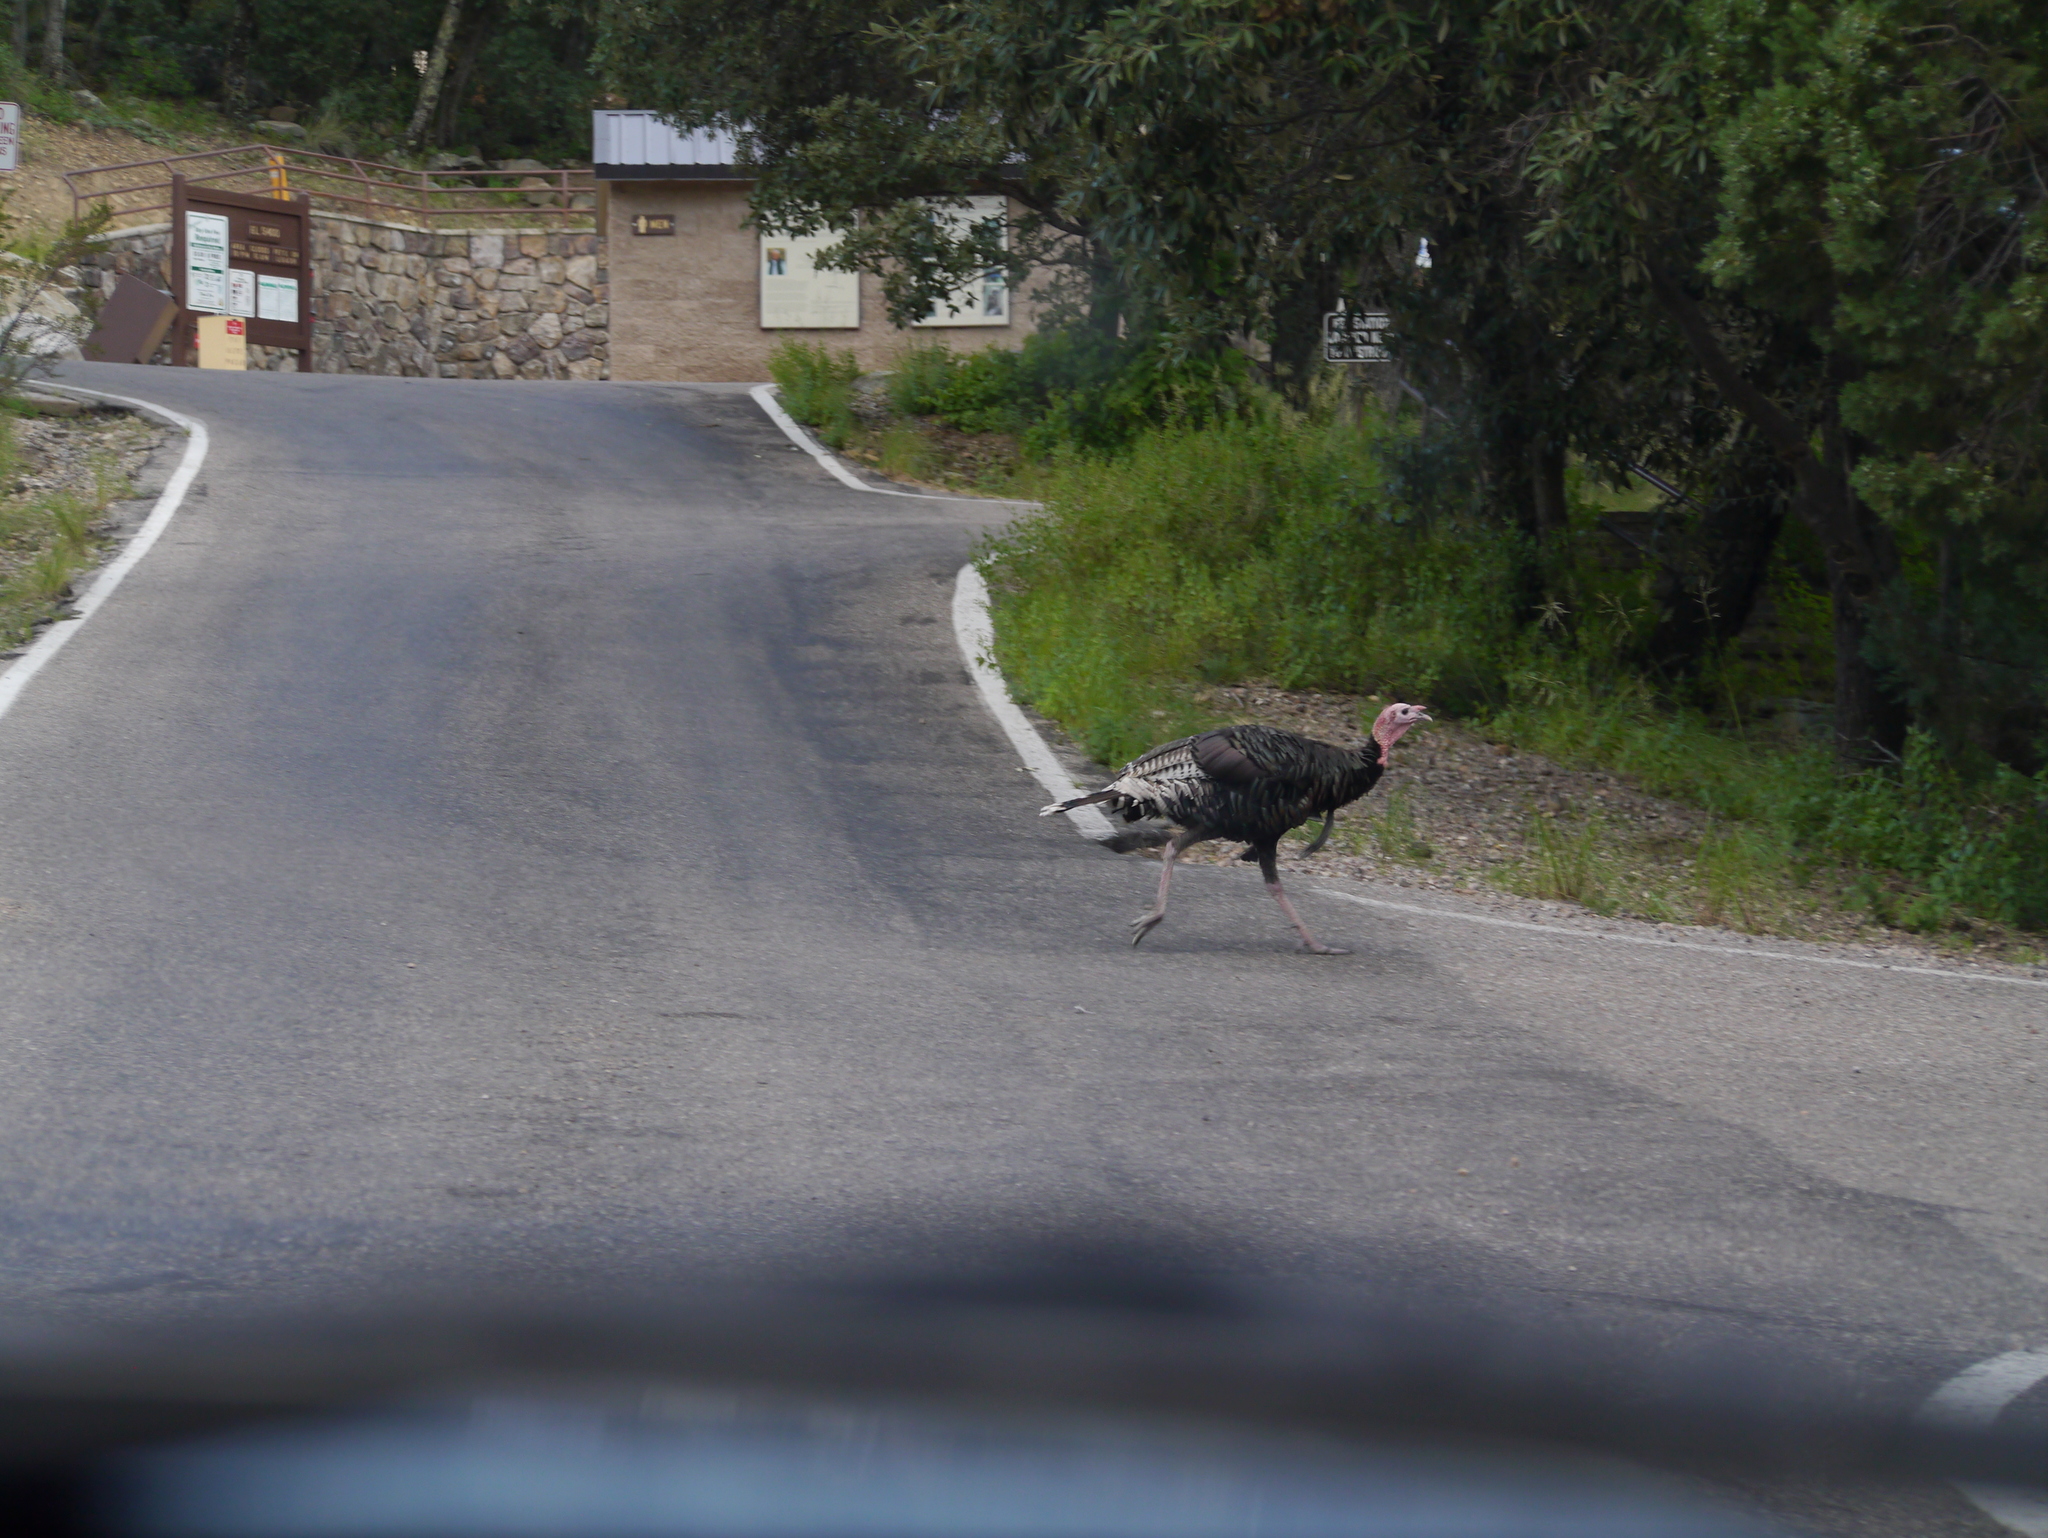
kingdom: Animalia
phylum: Chordata
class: Aves
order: Galliformes
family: Phasianidae
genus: Meleagris
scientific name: Meleagris gallopavo
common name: Wild turkey
